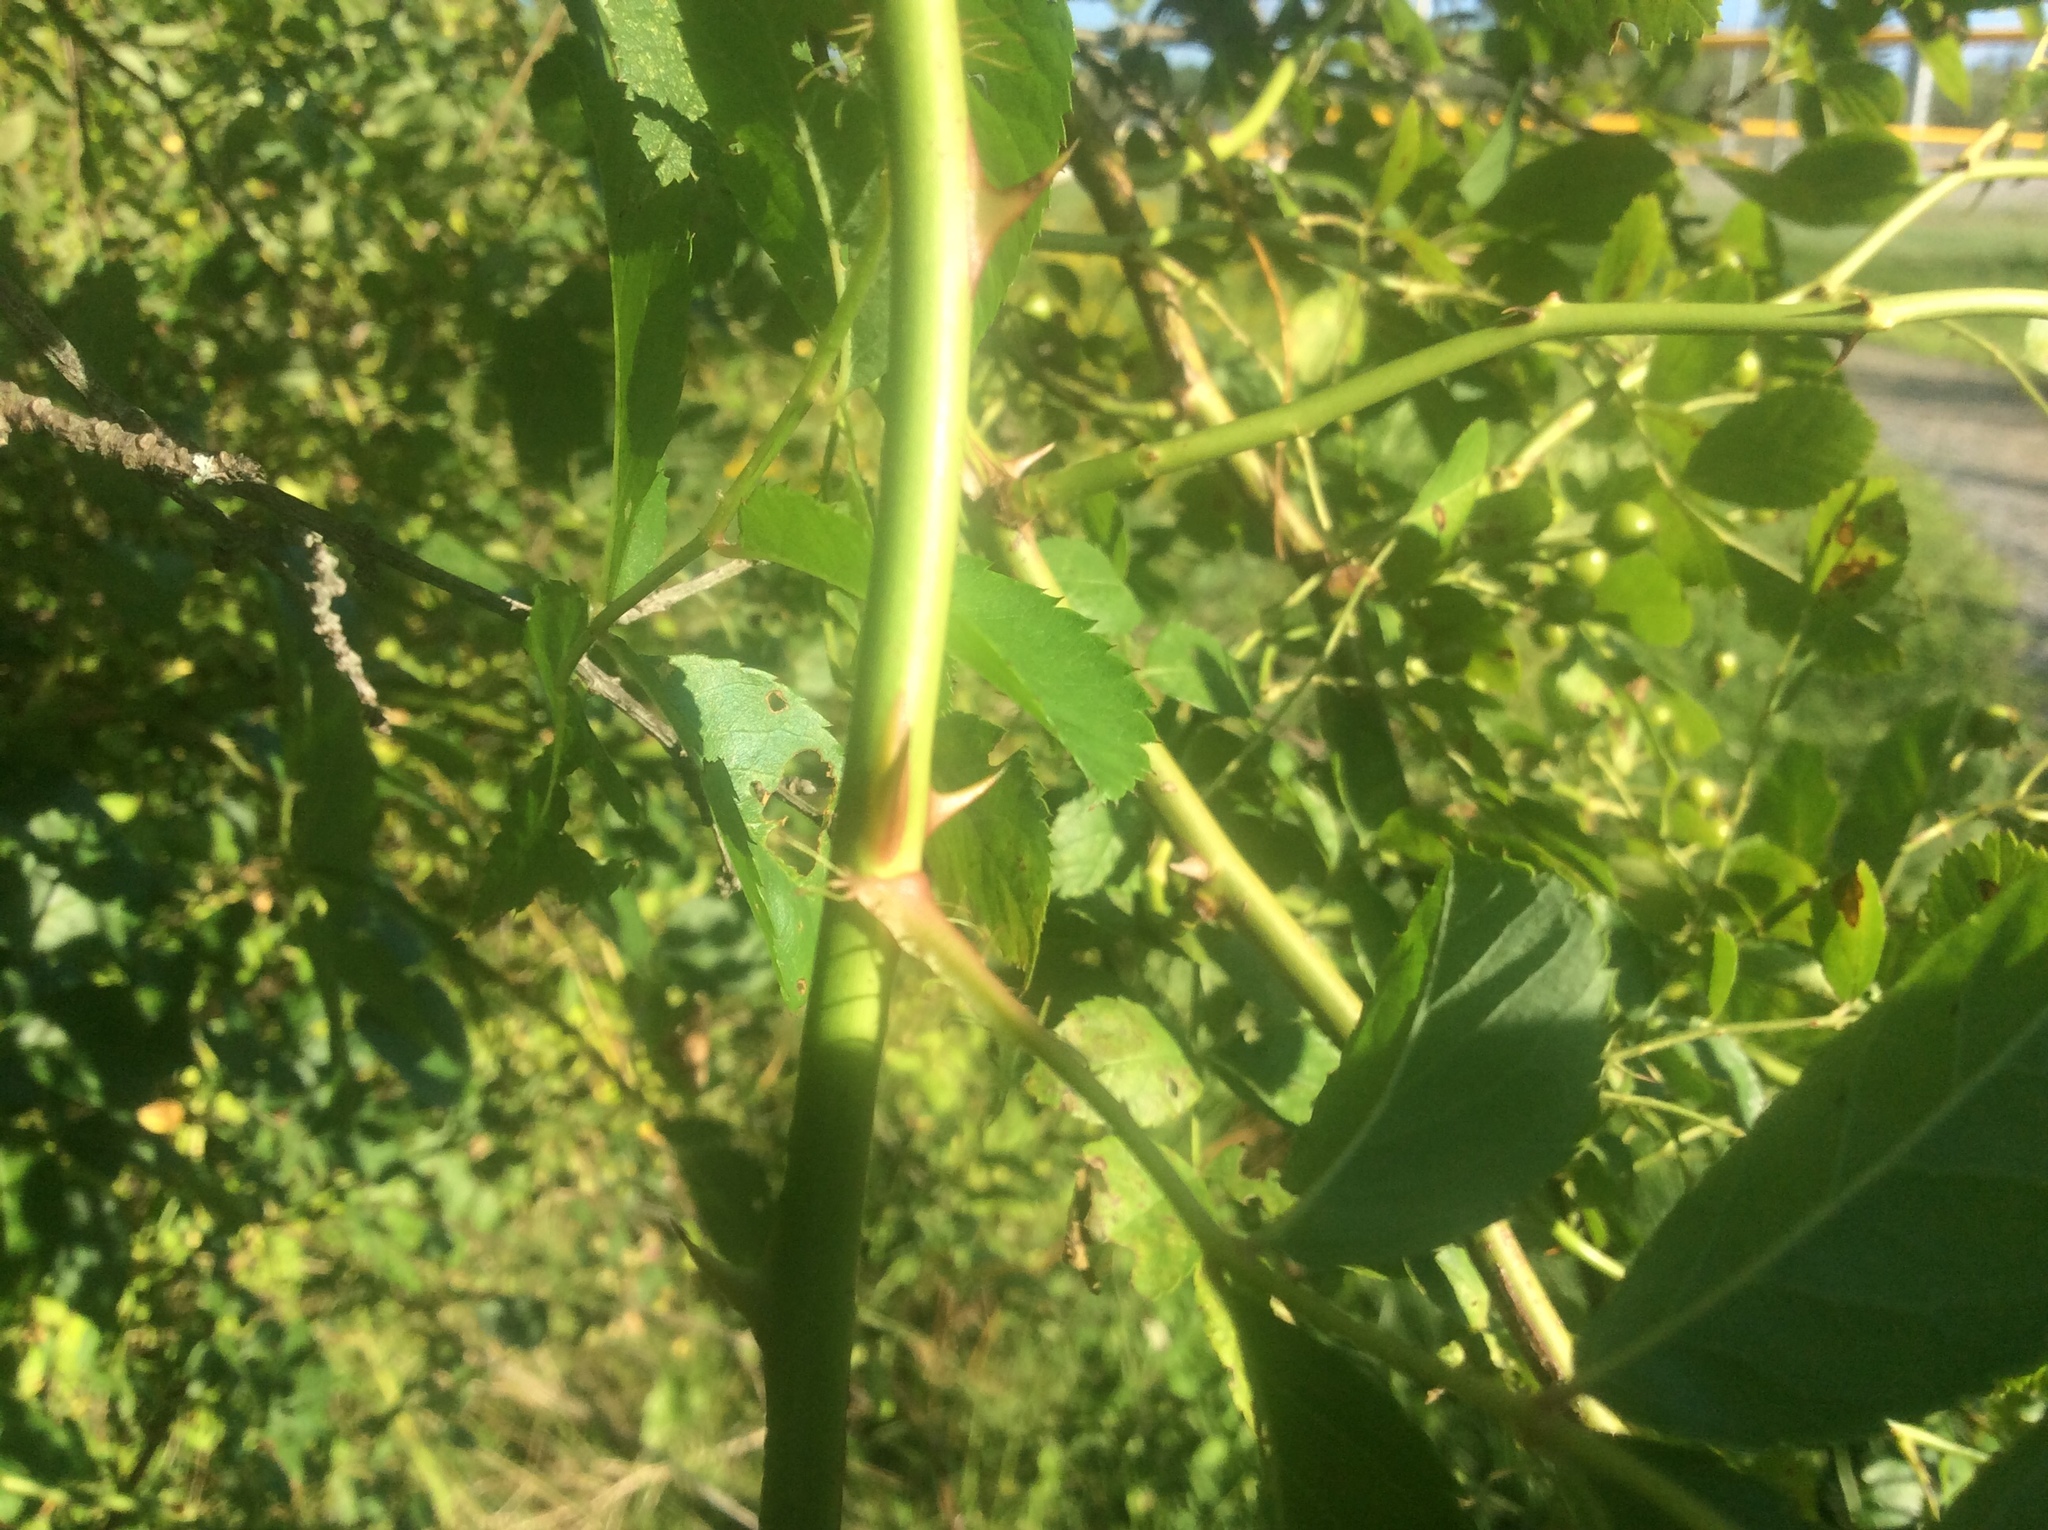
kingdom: Plantae
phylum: Tracheophyta
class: Magnoliopsida
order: Rosales
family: Rosaceae
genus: Rosa
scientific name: Rosa multiflora
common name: Multiflora rose
